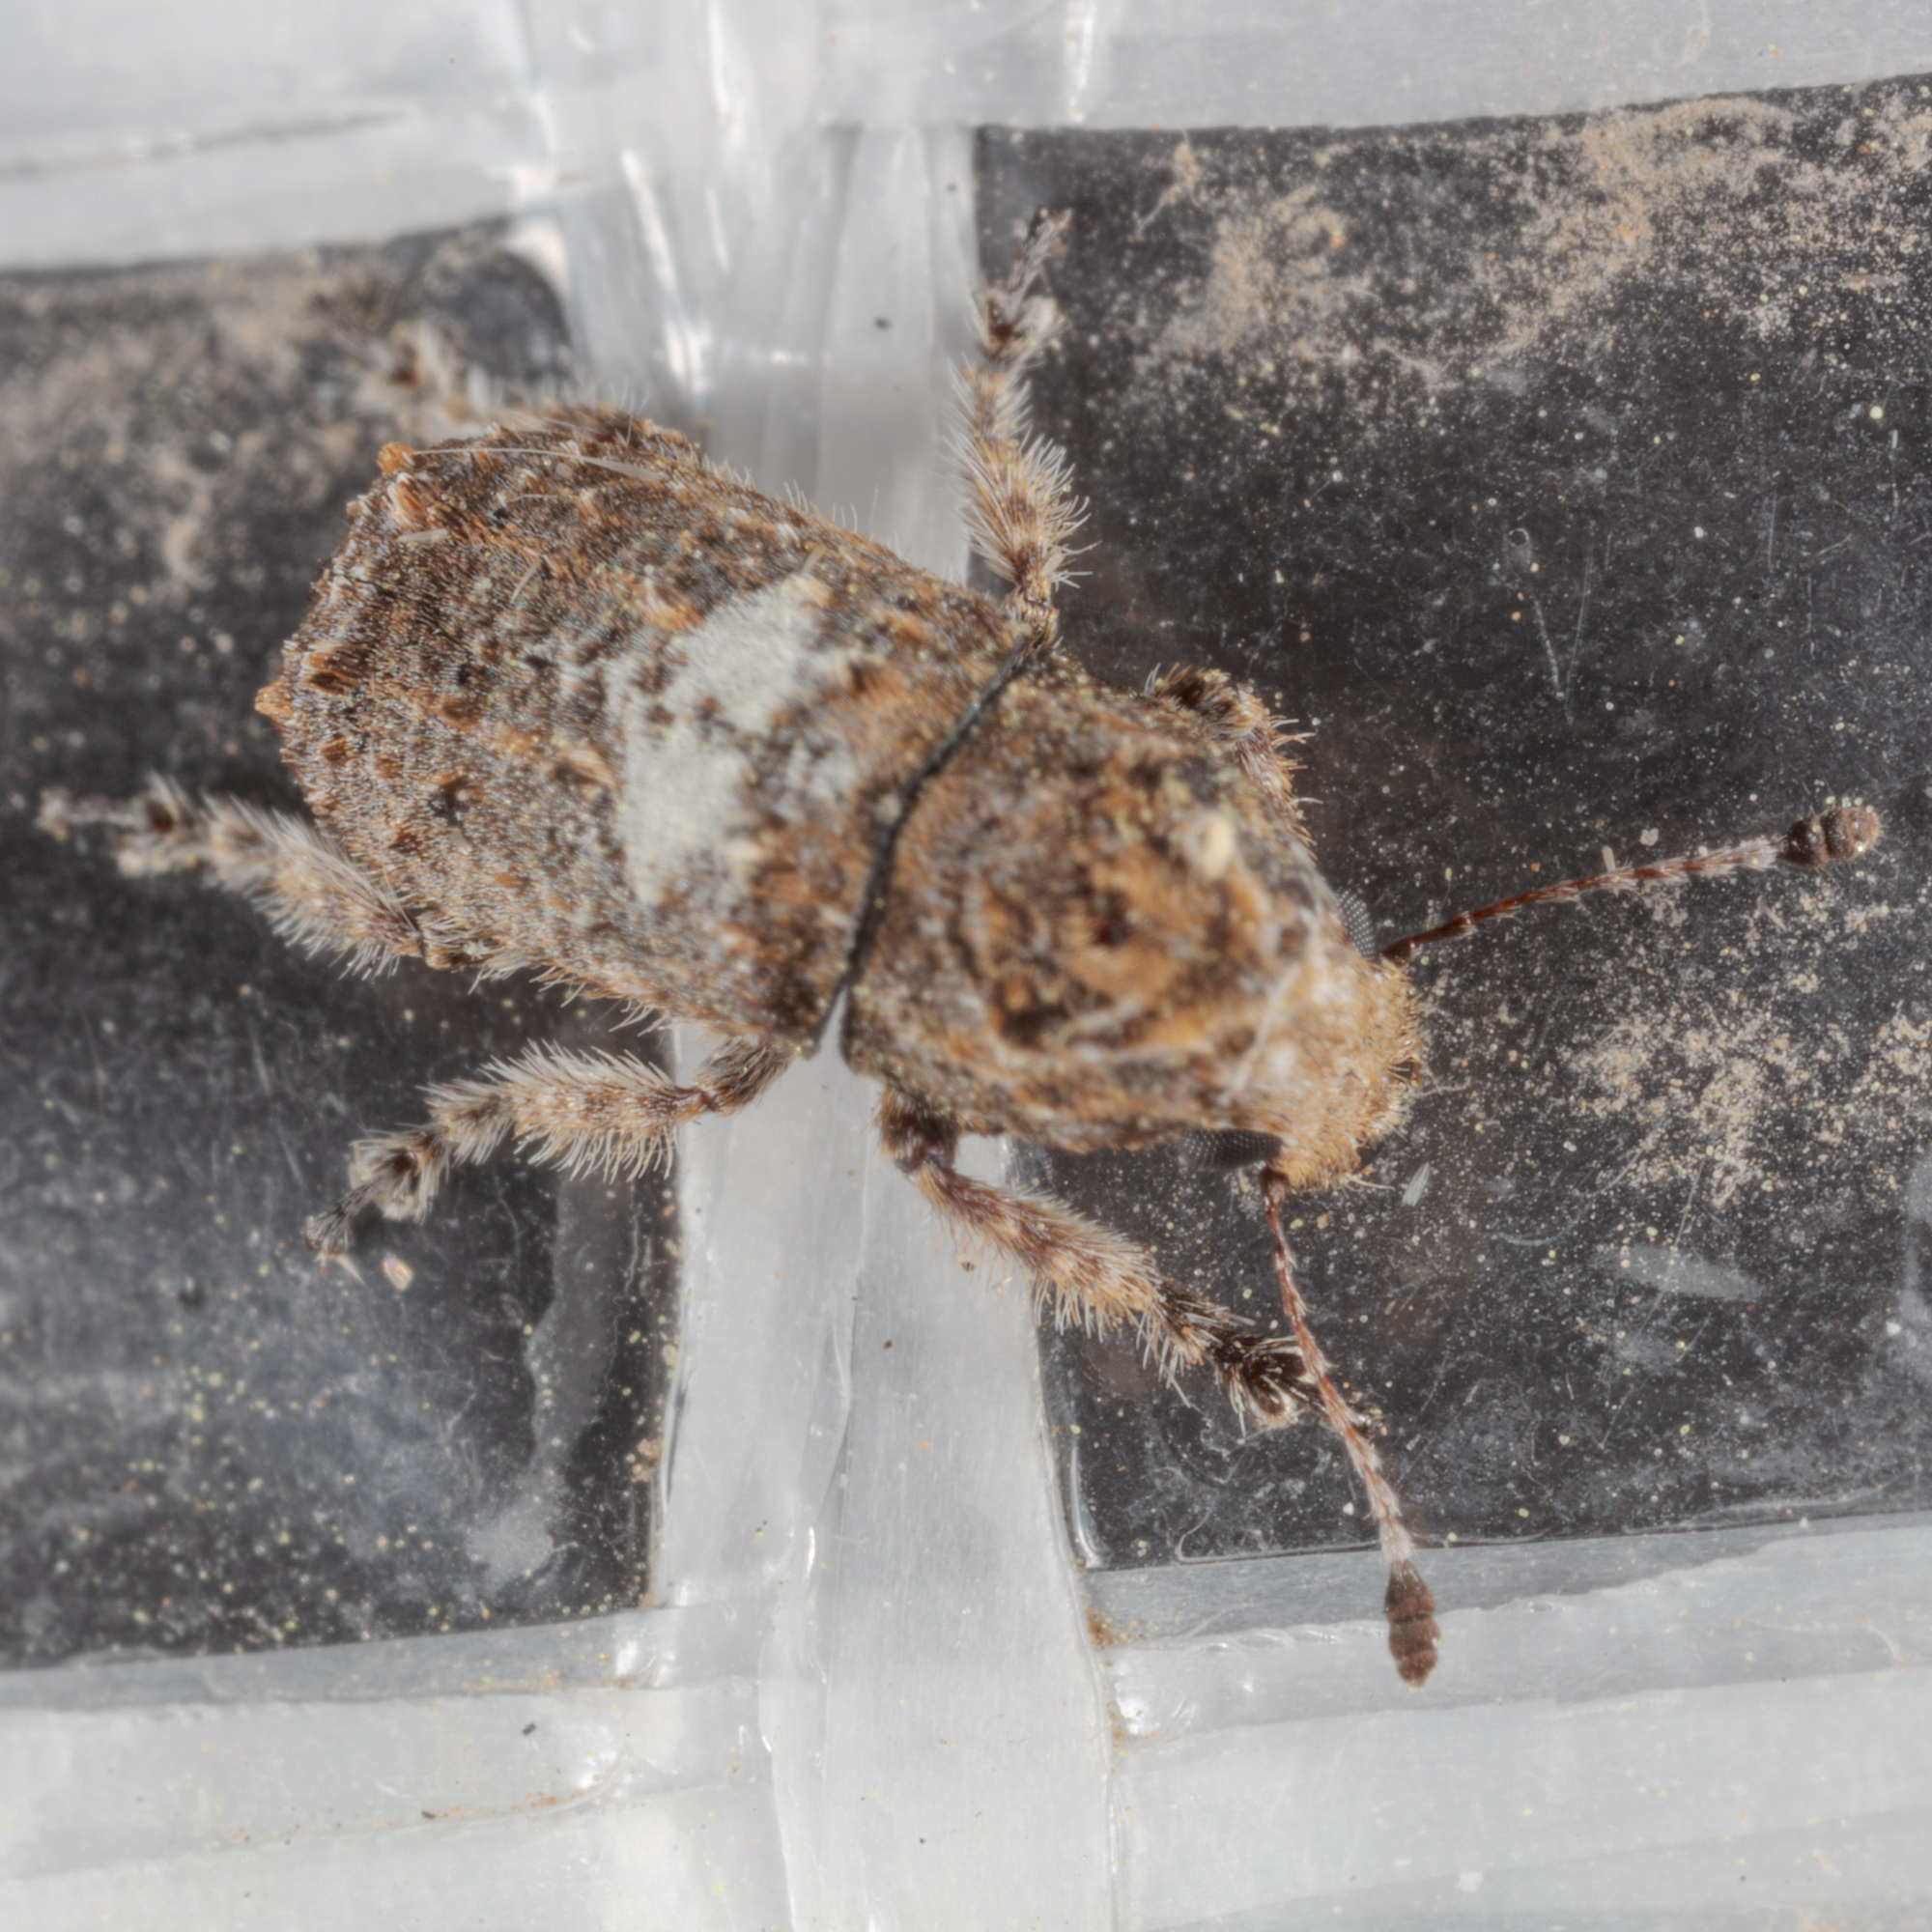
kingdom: Animalia
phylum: Arthropoda
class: Insecta
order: Coleoptera
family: Anthribidae
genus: Toxonotus
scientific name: Toxonotus cornutus
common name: Fungus weevil
